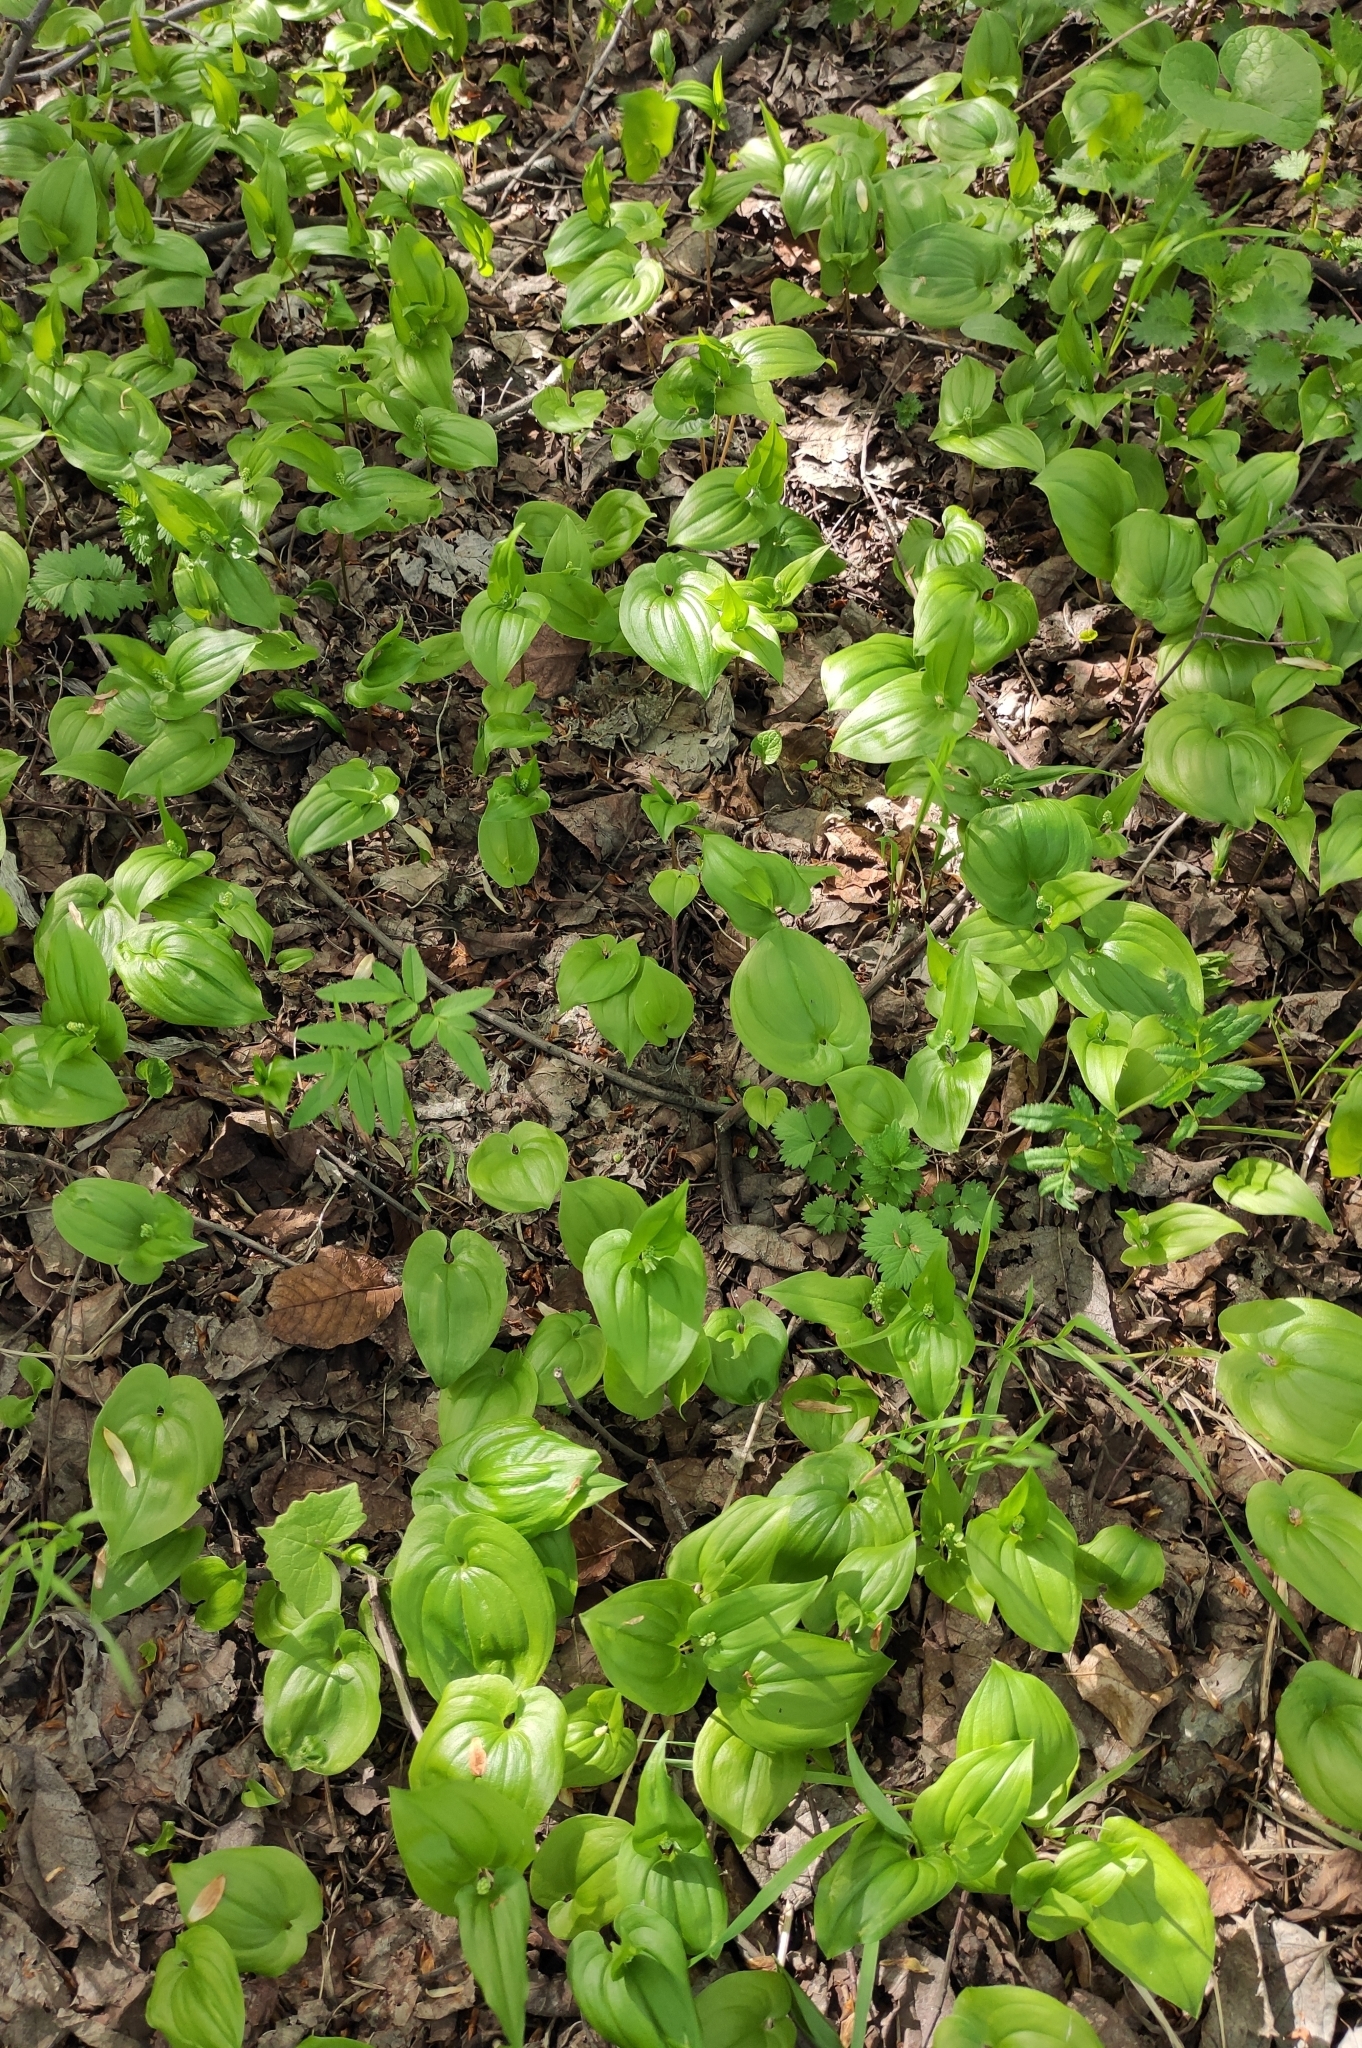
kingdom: Plantae
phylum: Tracheophyta
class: Liliopsida
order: Asparagales
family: Asparagaceae
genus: Maianthemum
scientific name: Maianthemum bifolium
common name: May lily
